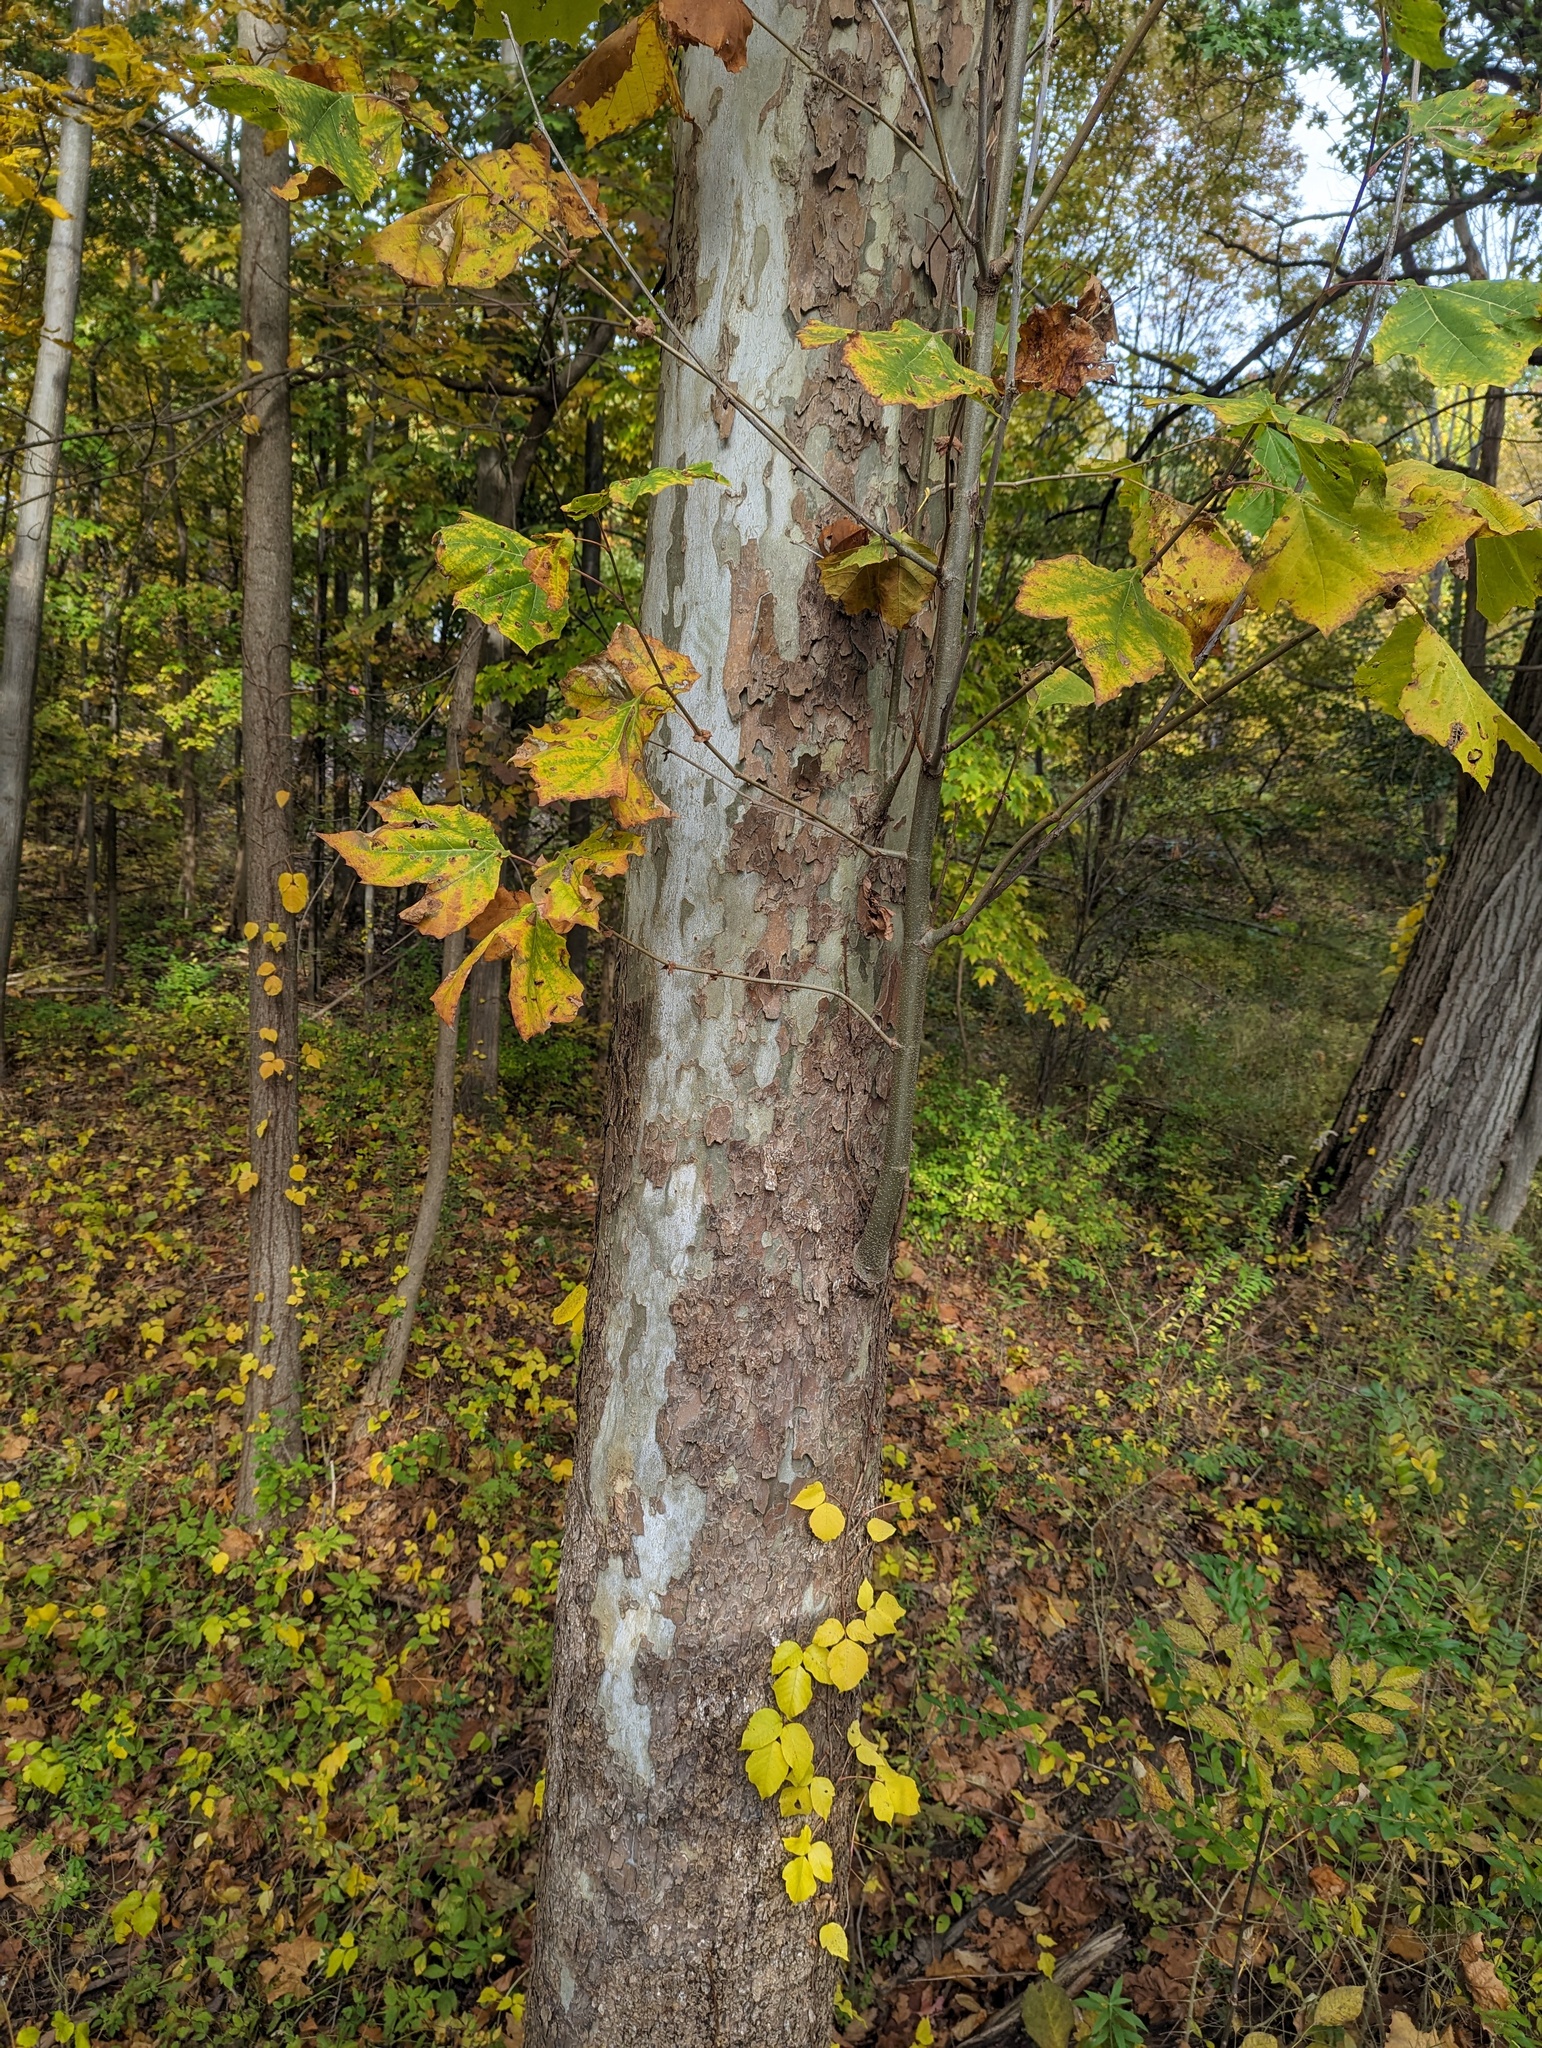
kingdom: Plantae
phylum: Tracheophyta
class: Magnoliopsida
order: Proteales
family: Platanaceae
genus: Platanus
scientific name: Platanus occidentalis
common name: American sycamore
